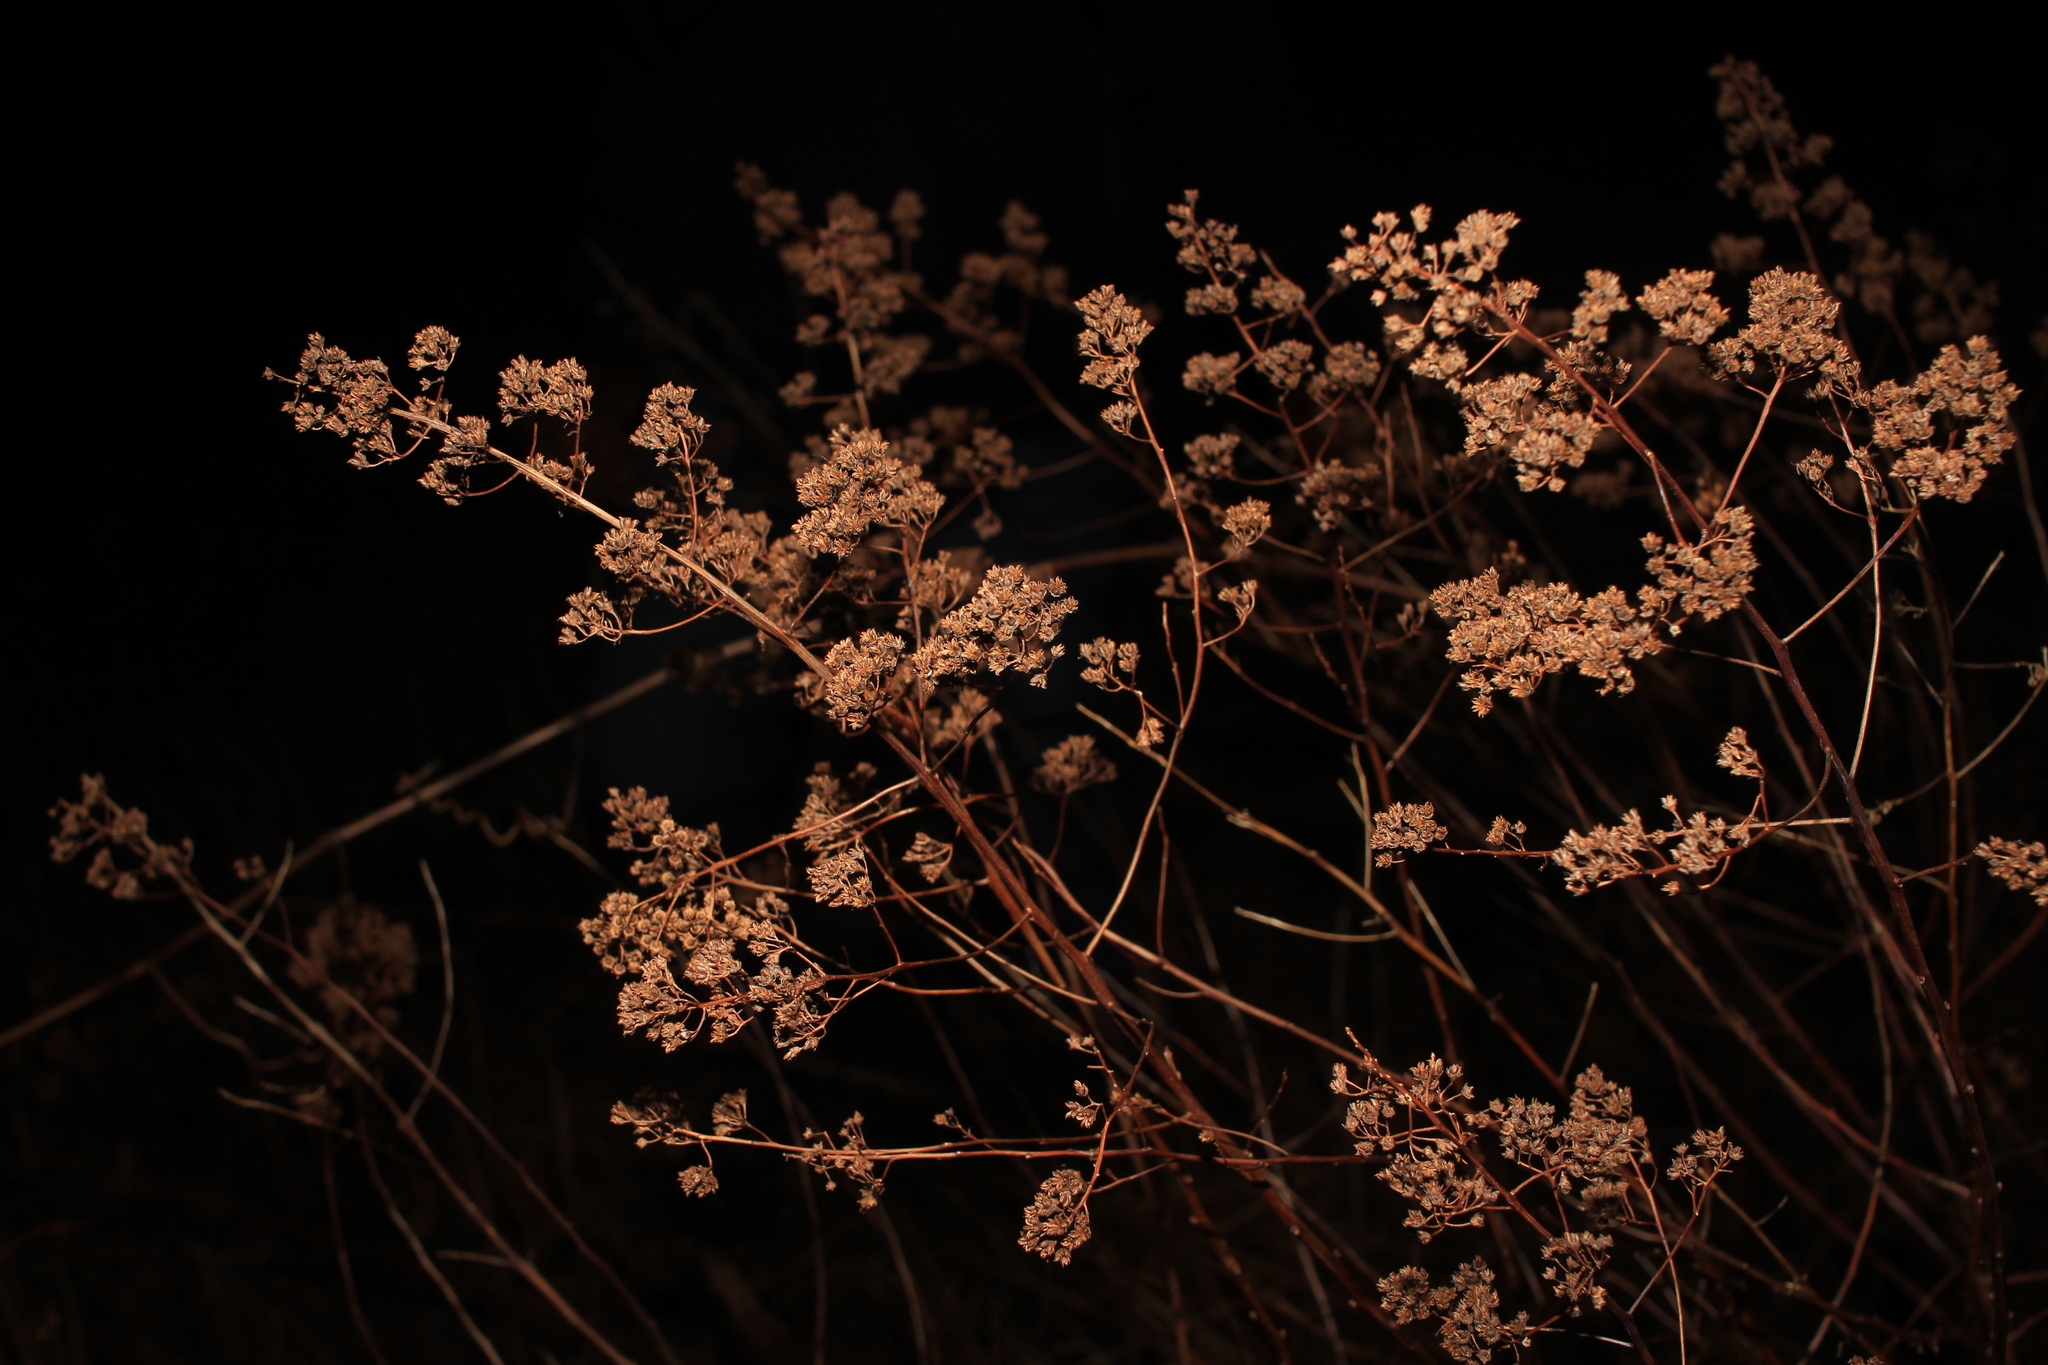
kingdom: Plantae
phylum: Tracheophyta
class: Magnoliopsida
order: Rosales
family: Rosaceae
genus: Spiraea
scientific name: Spiraea alba
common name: Pale bridewort
